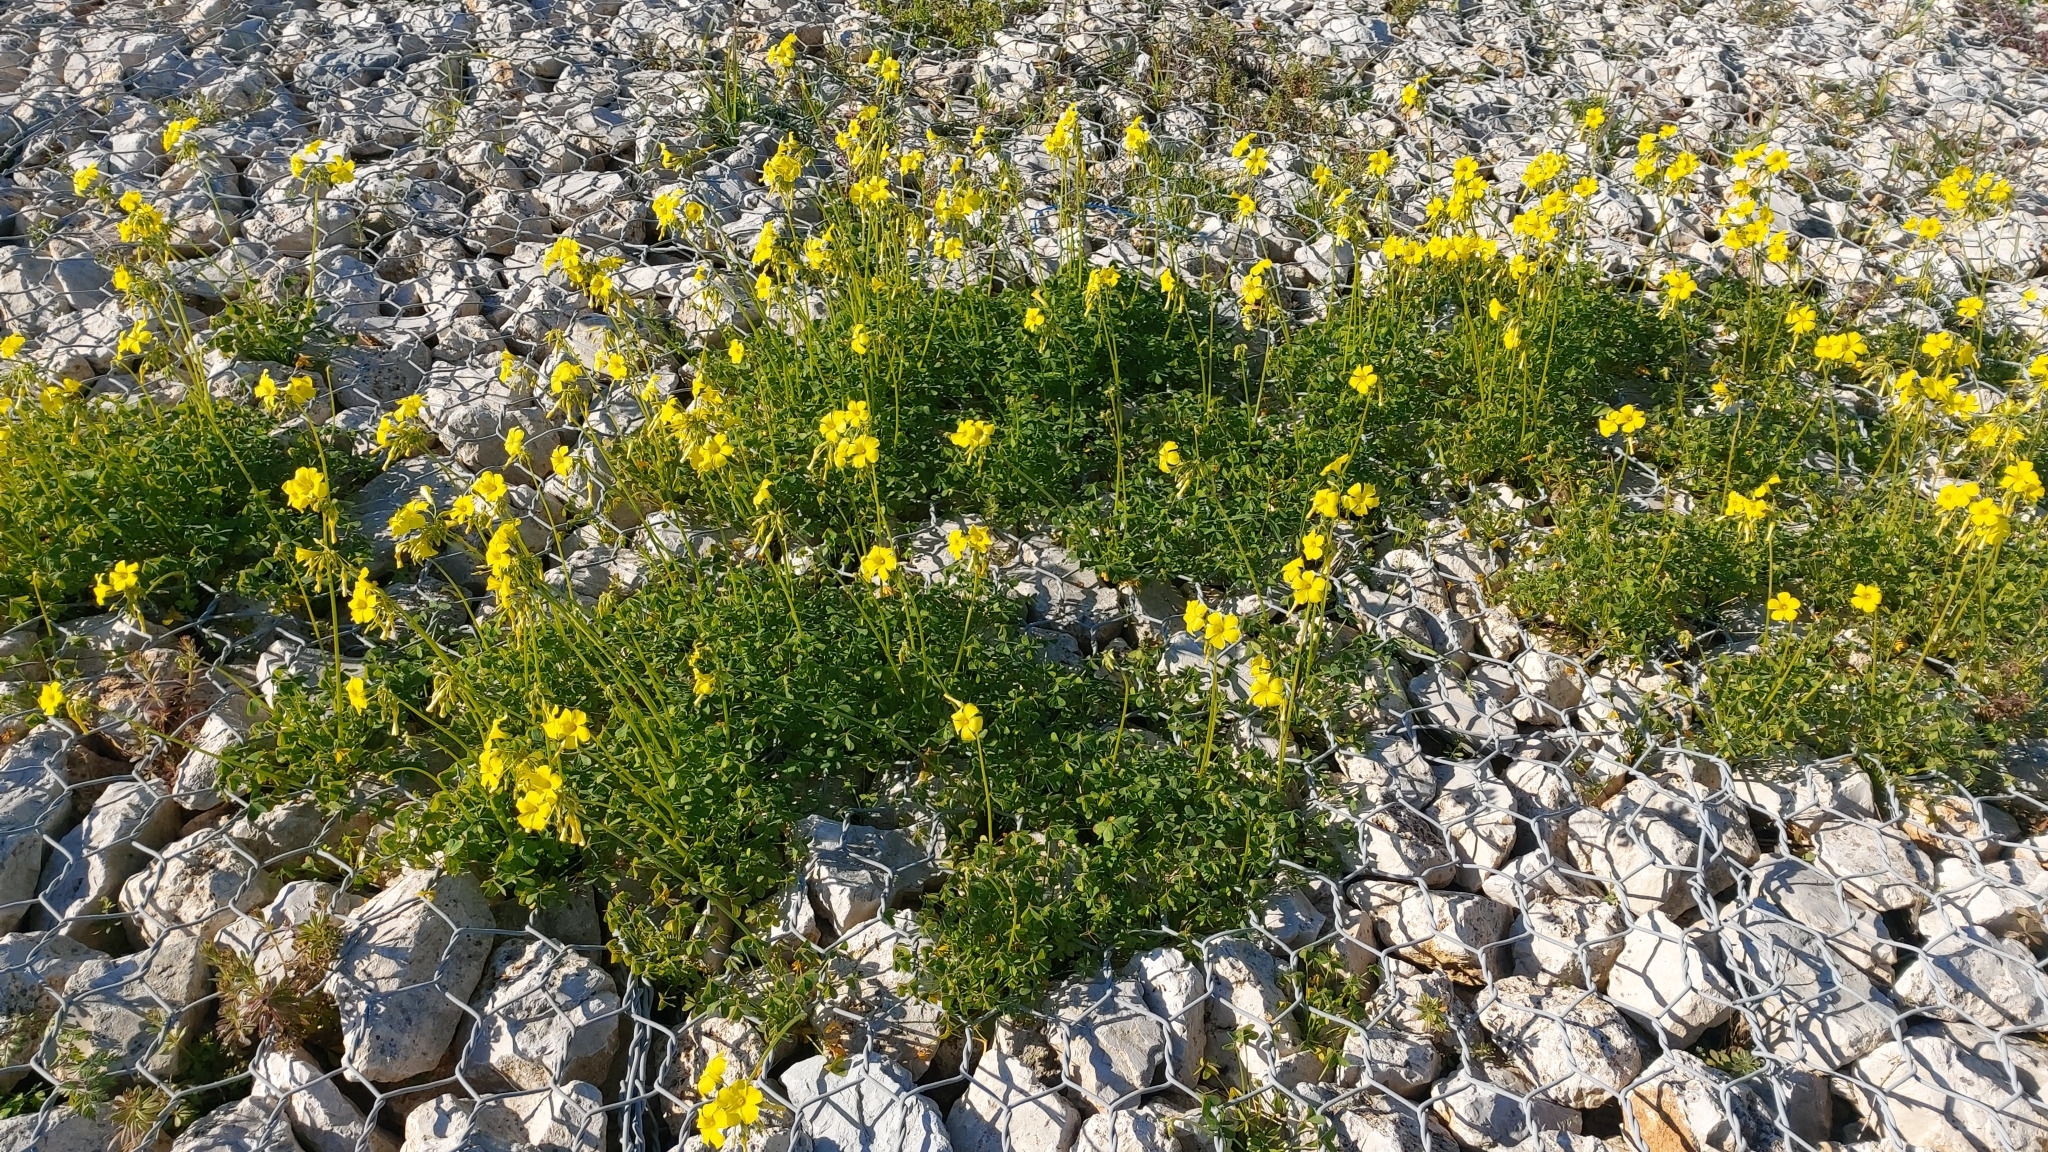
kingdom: Plantae
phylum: Tracheophyta
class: Magnoliopsida
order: Oxalidales
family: Oxalidaceae
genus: Oxalis
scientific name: Oxalis pes-caprae
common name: Bermuda-buttercup
